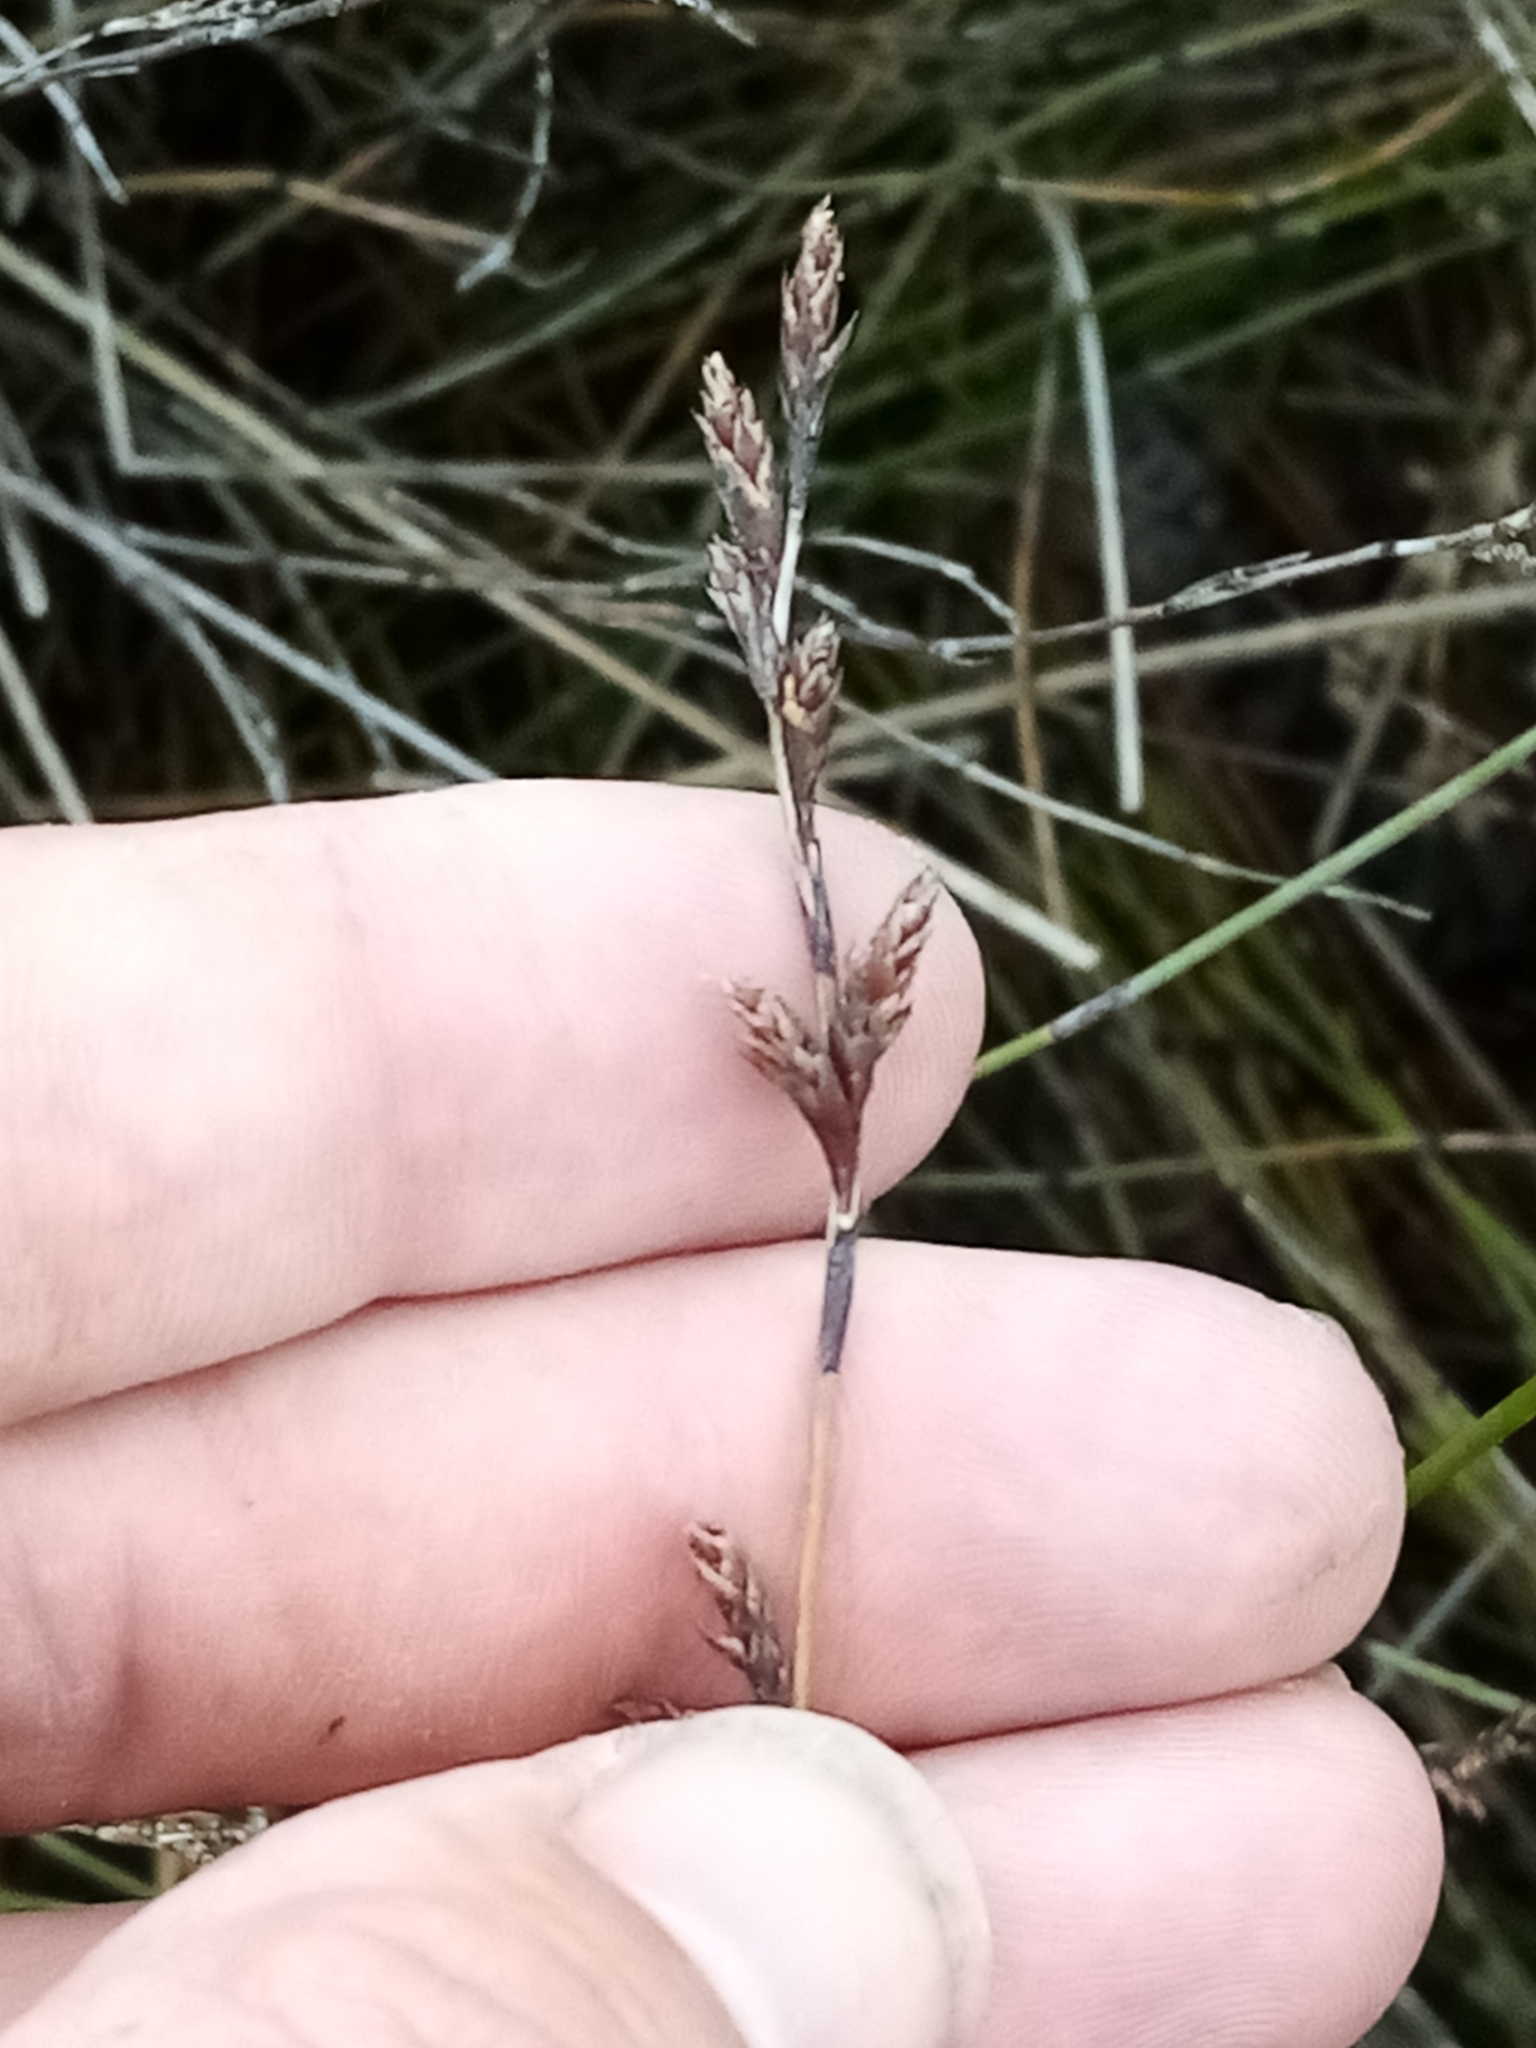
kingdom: Plantae
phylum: Tracheophyta
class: Liliopsida
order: Poales
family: Restionaceae
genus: Apodasmia
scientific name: Apodasmia similis
